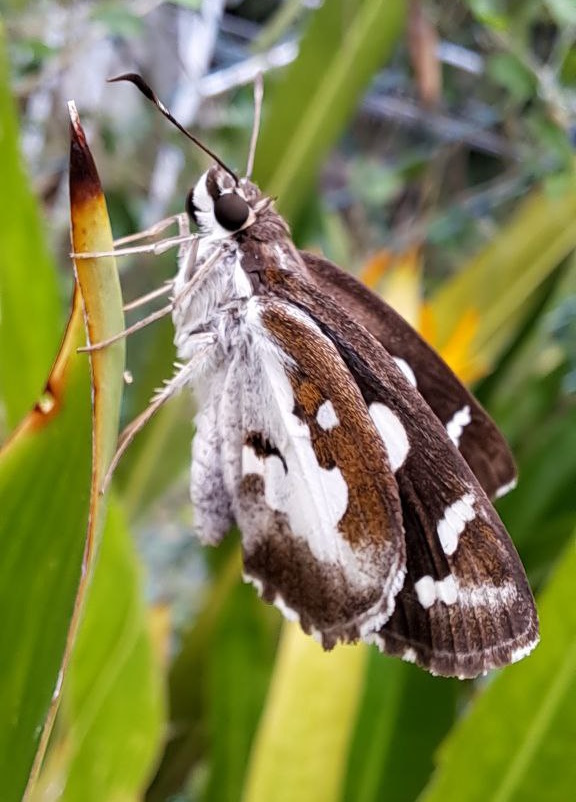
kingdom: Animalia
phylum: Arthropoda
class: Insecta
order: Lepidoptera
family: Hesperiidae
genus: Udaspes
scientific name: Udaspes folus
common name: Grass demon
